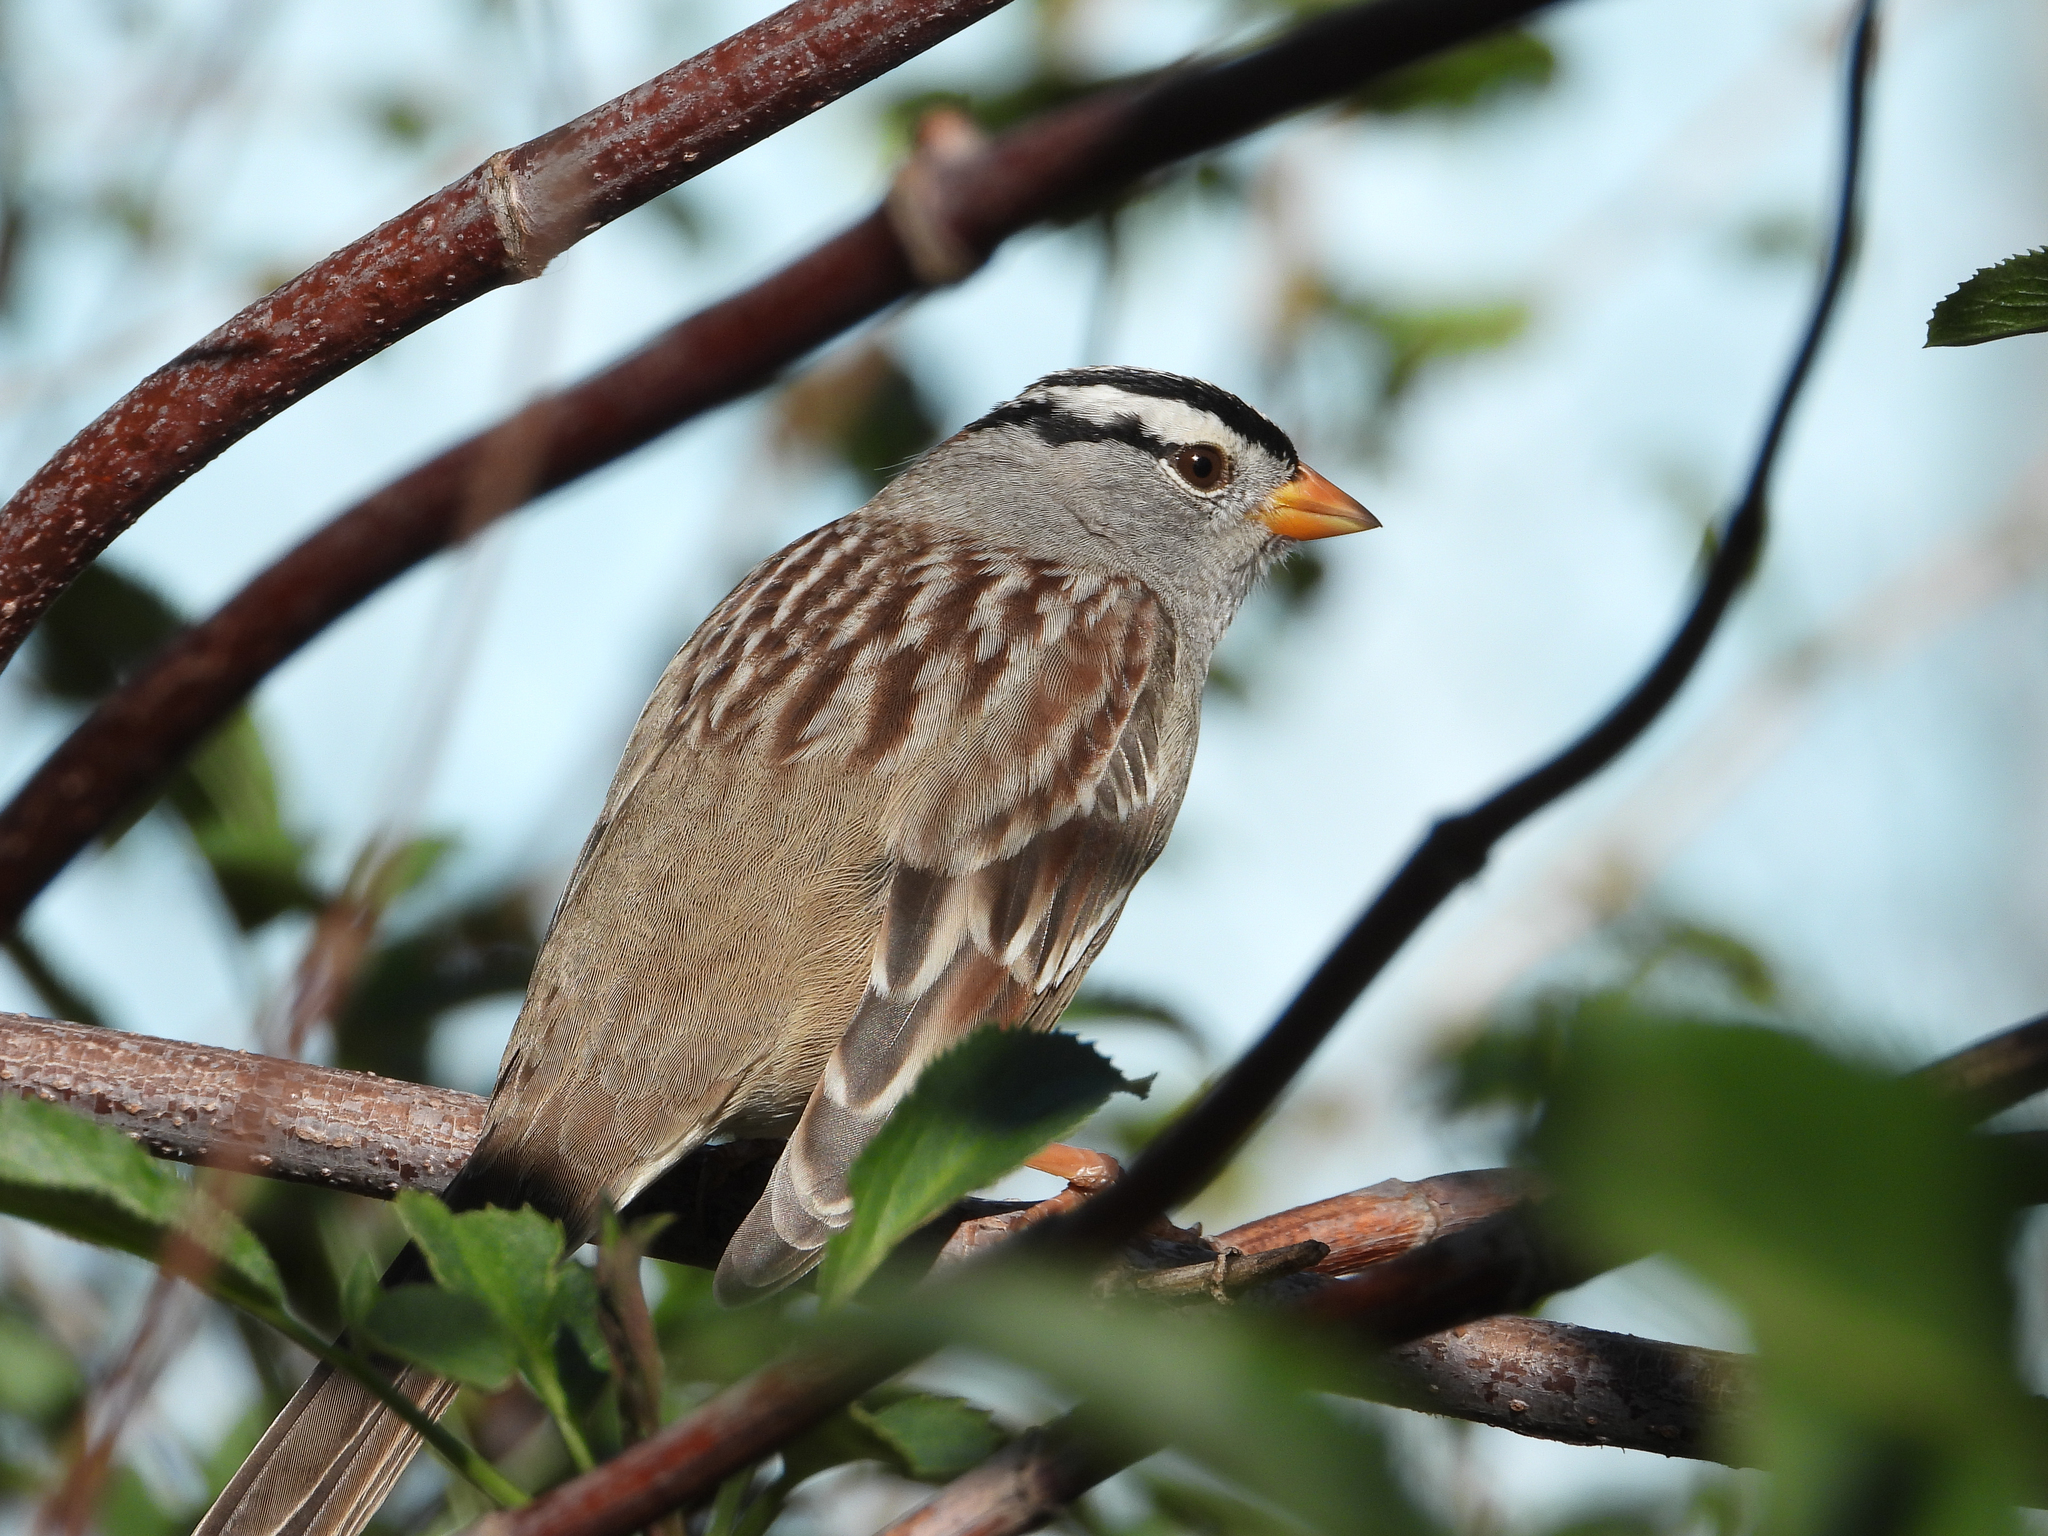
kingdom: Animalia
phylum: Chordata
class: Aves
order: Passeriformes
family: Passerellidae
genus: Zonotrichia
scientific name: Zonotrichia leucophrys
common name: White-crowned sparrow
